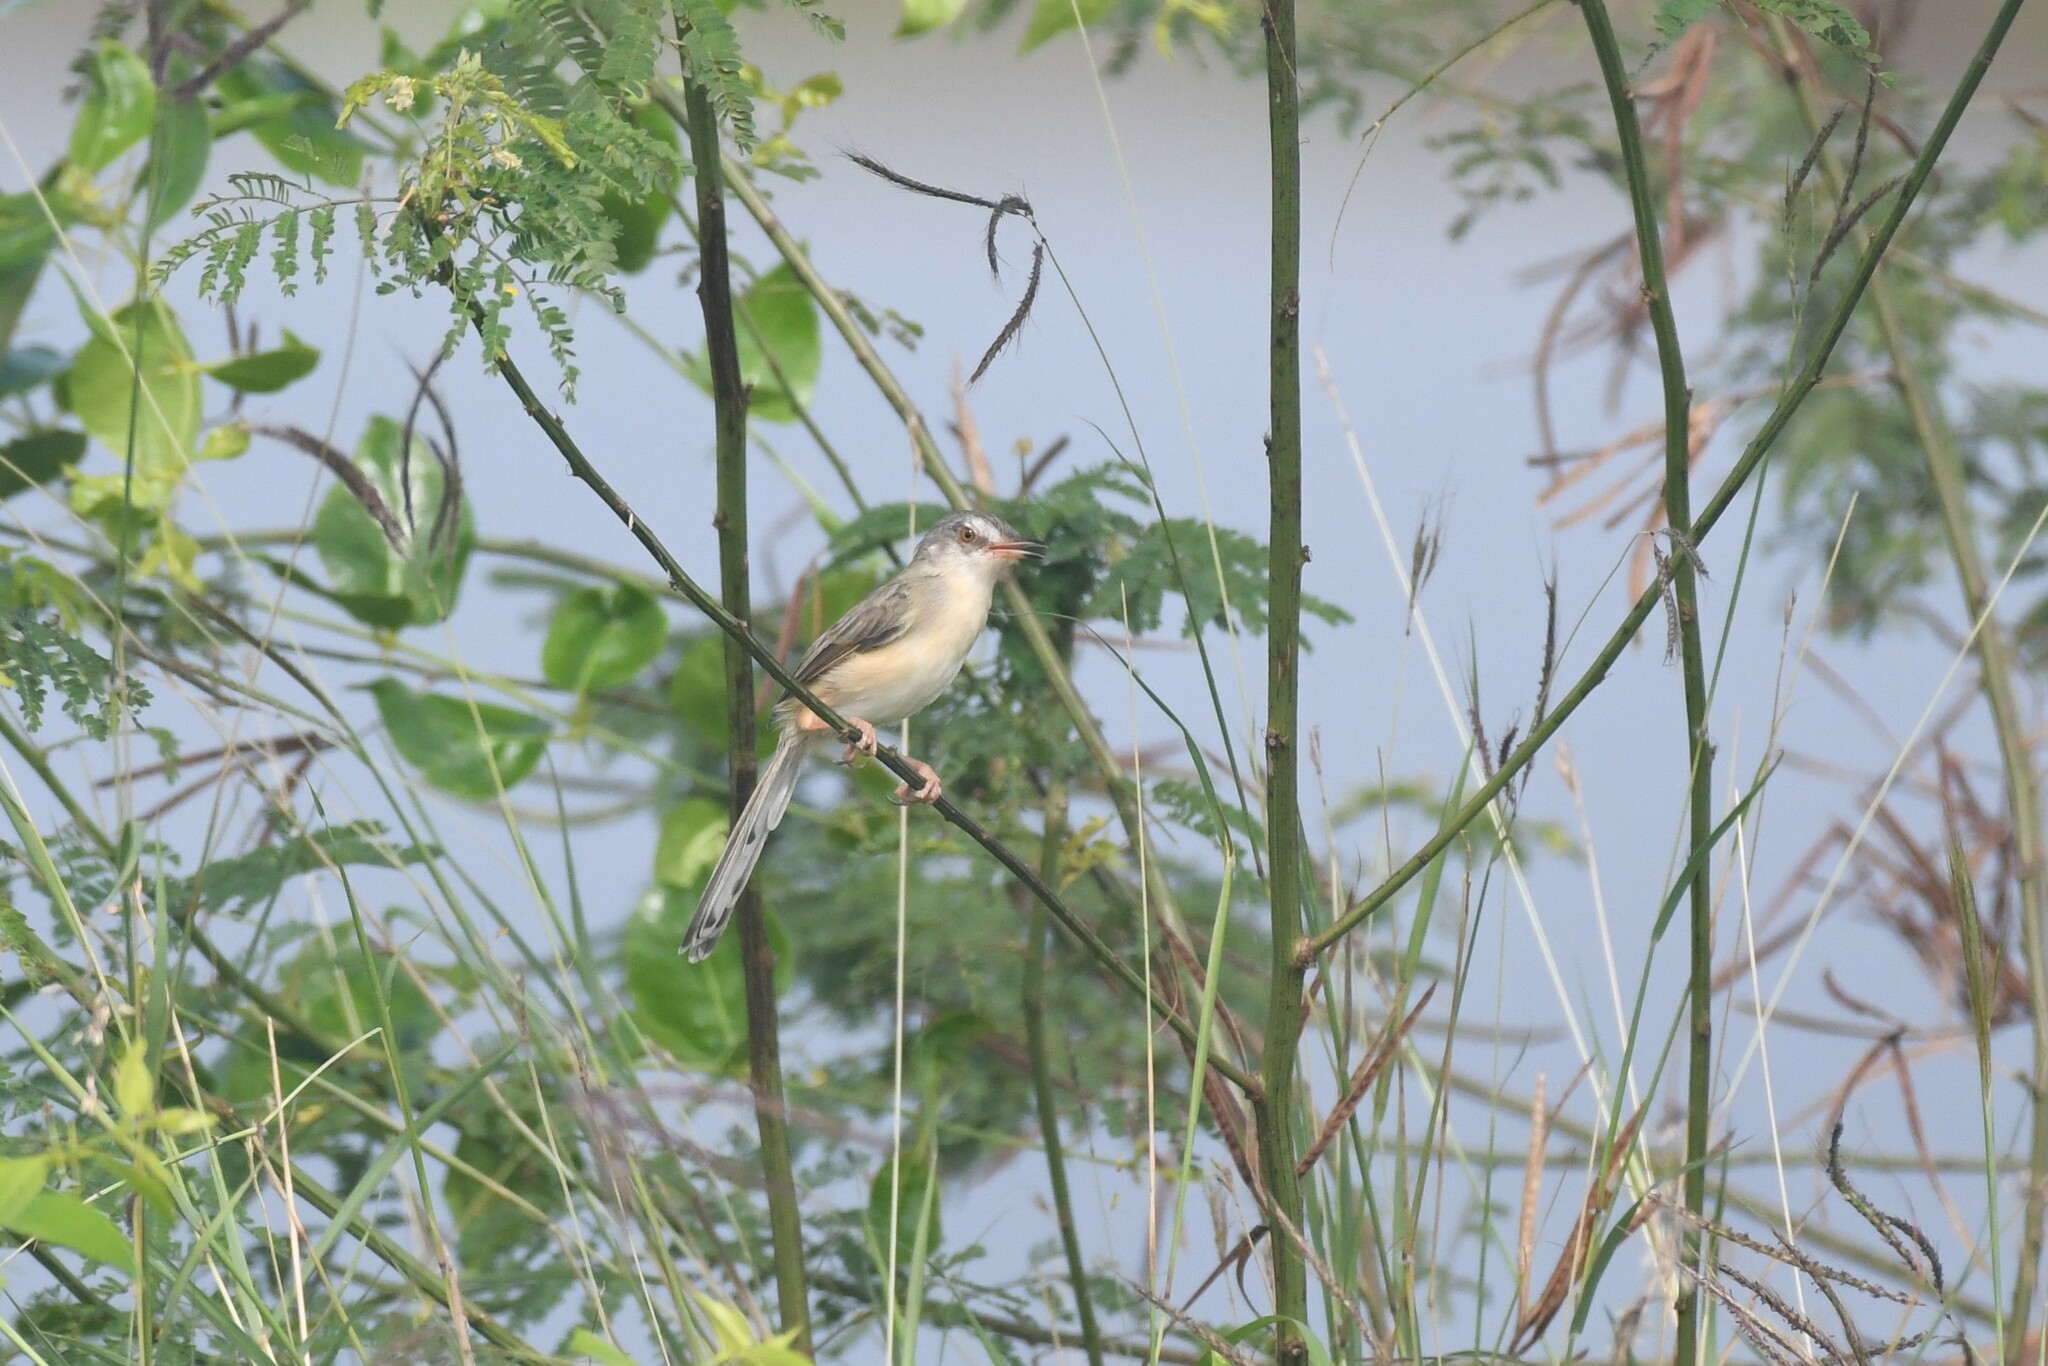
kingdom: Animalia
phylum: Chordata
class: Aves
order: Passeriformes
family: Cisticolidae
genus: Prinia
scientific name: Prinia inornata
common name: Plain prinia
